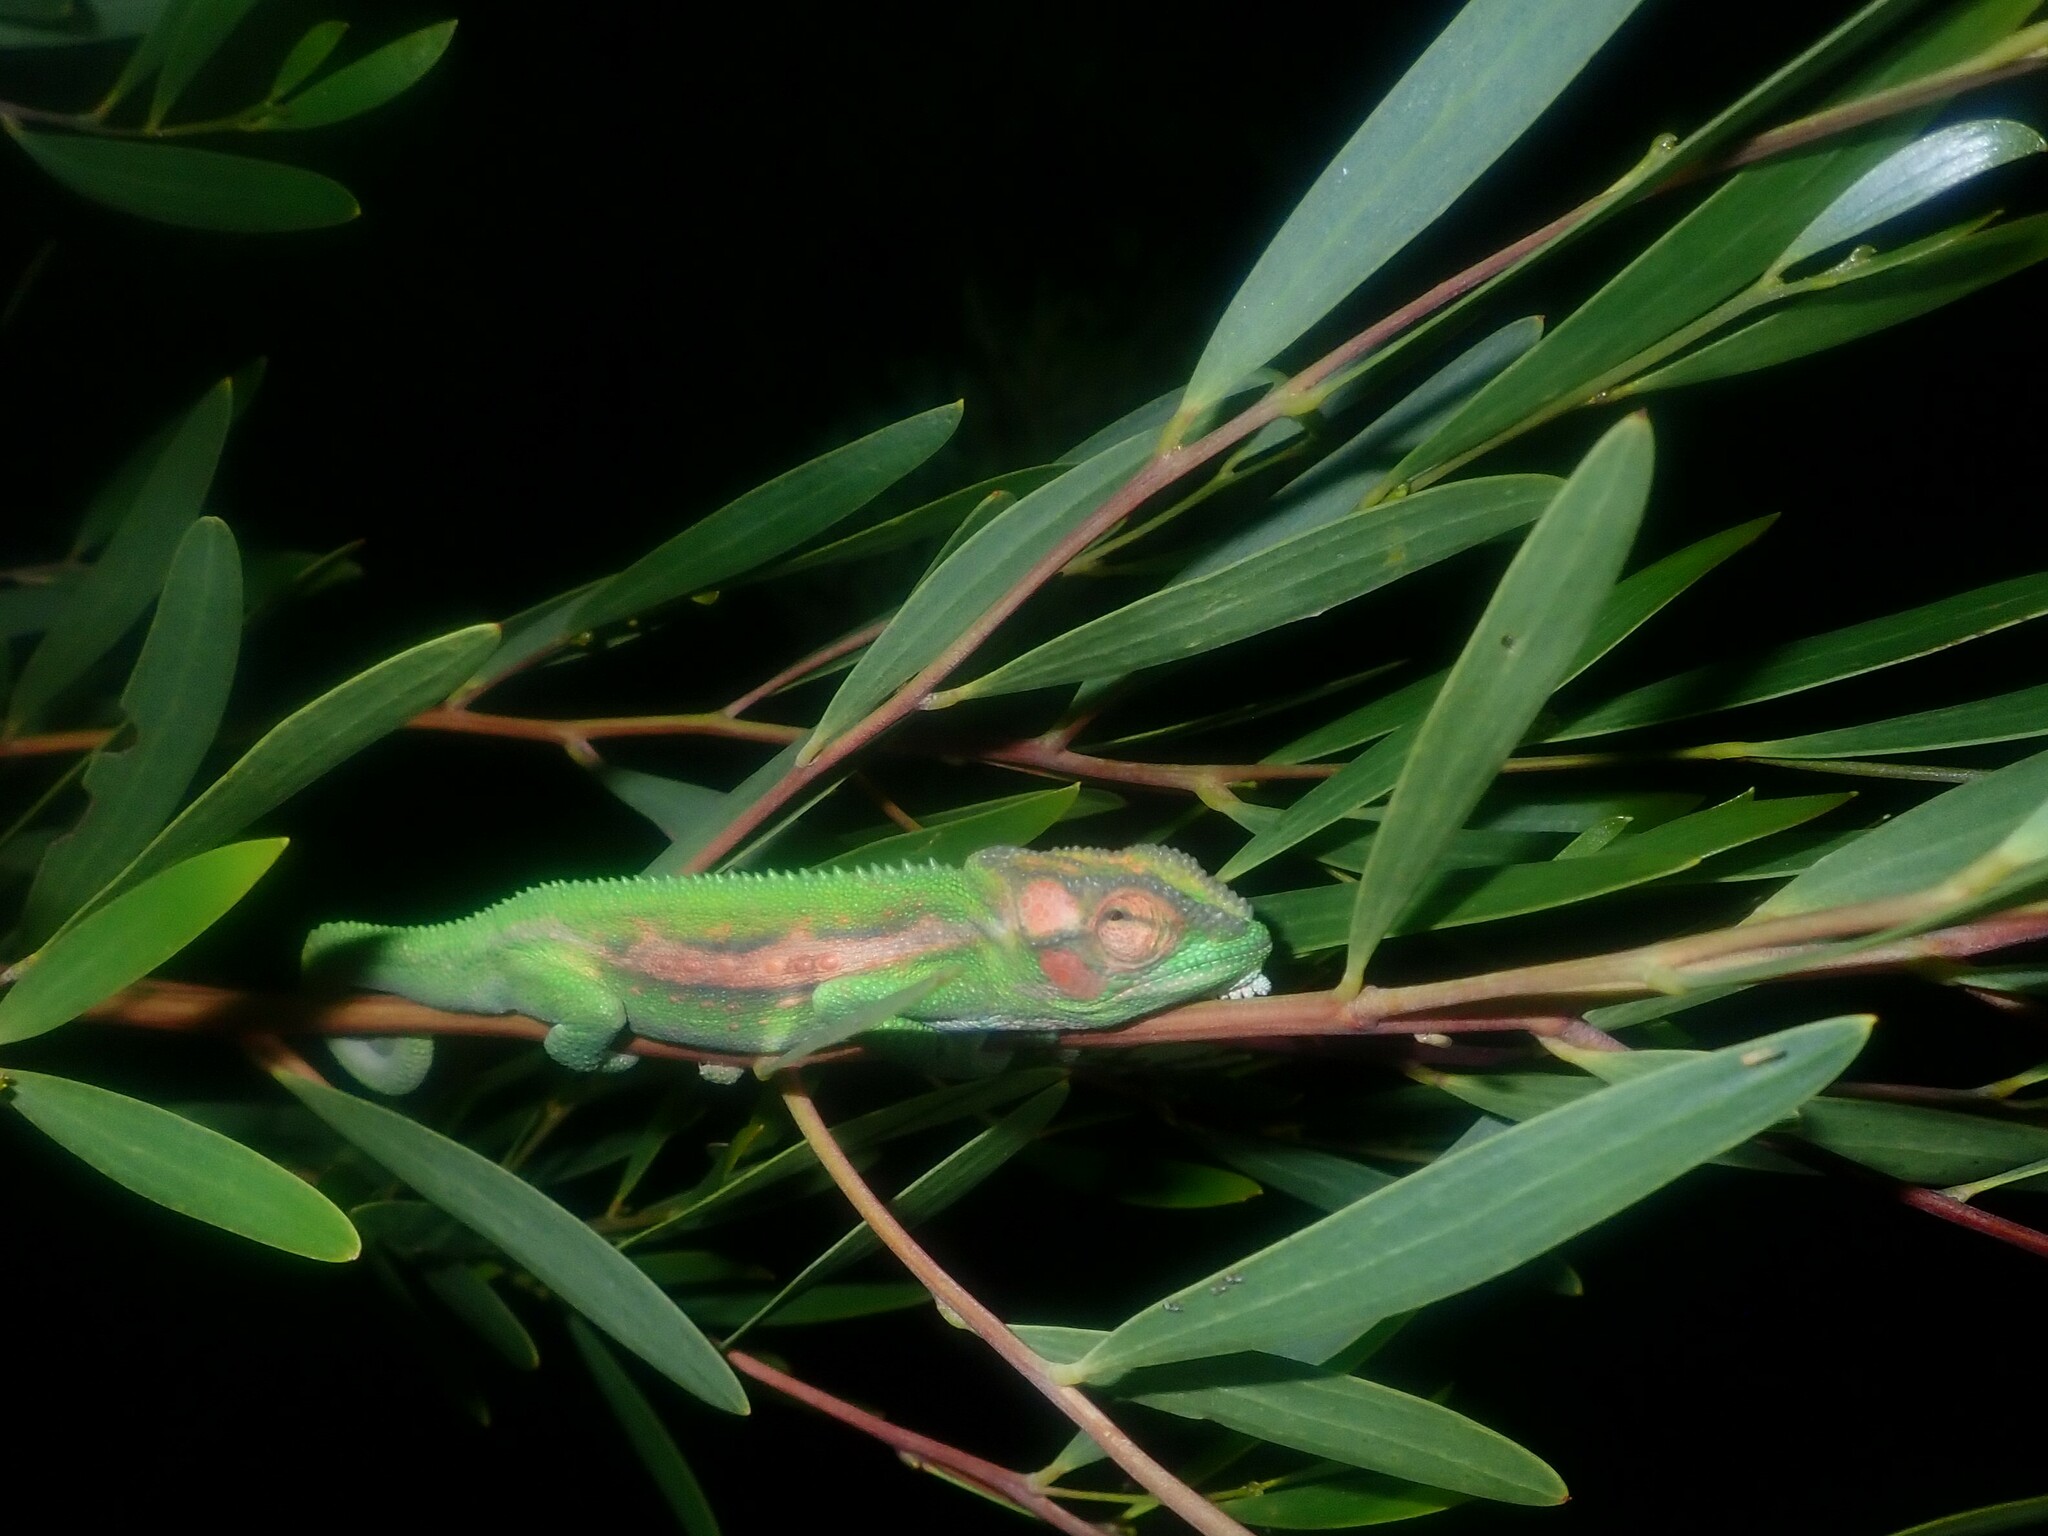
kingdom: Animalia
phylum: Chordata
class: Squamata
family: Chamaeleonidae
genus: Bradypodion
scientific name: Bradypodion pumilum
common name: Cape dwarf chameleon
